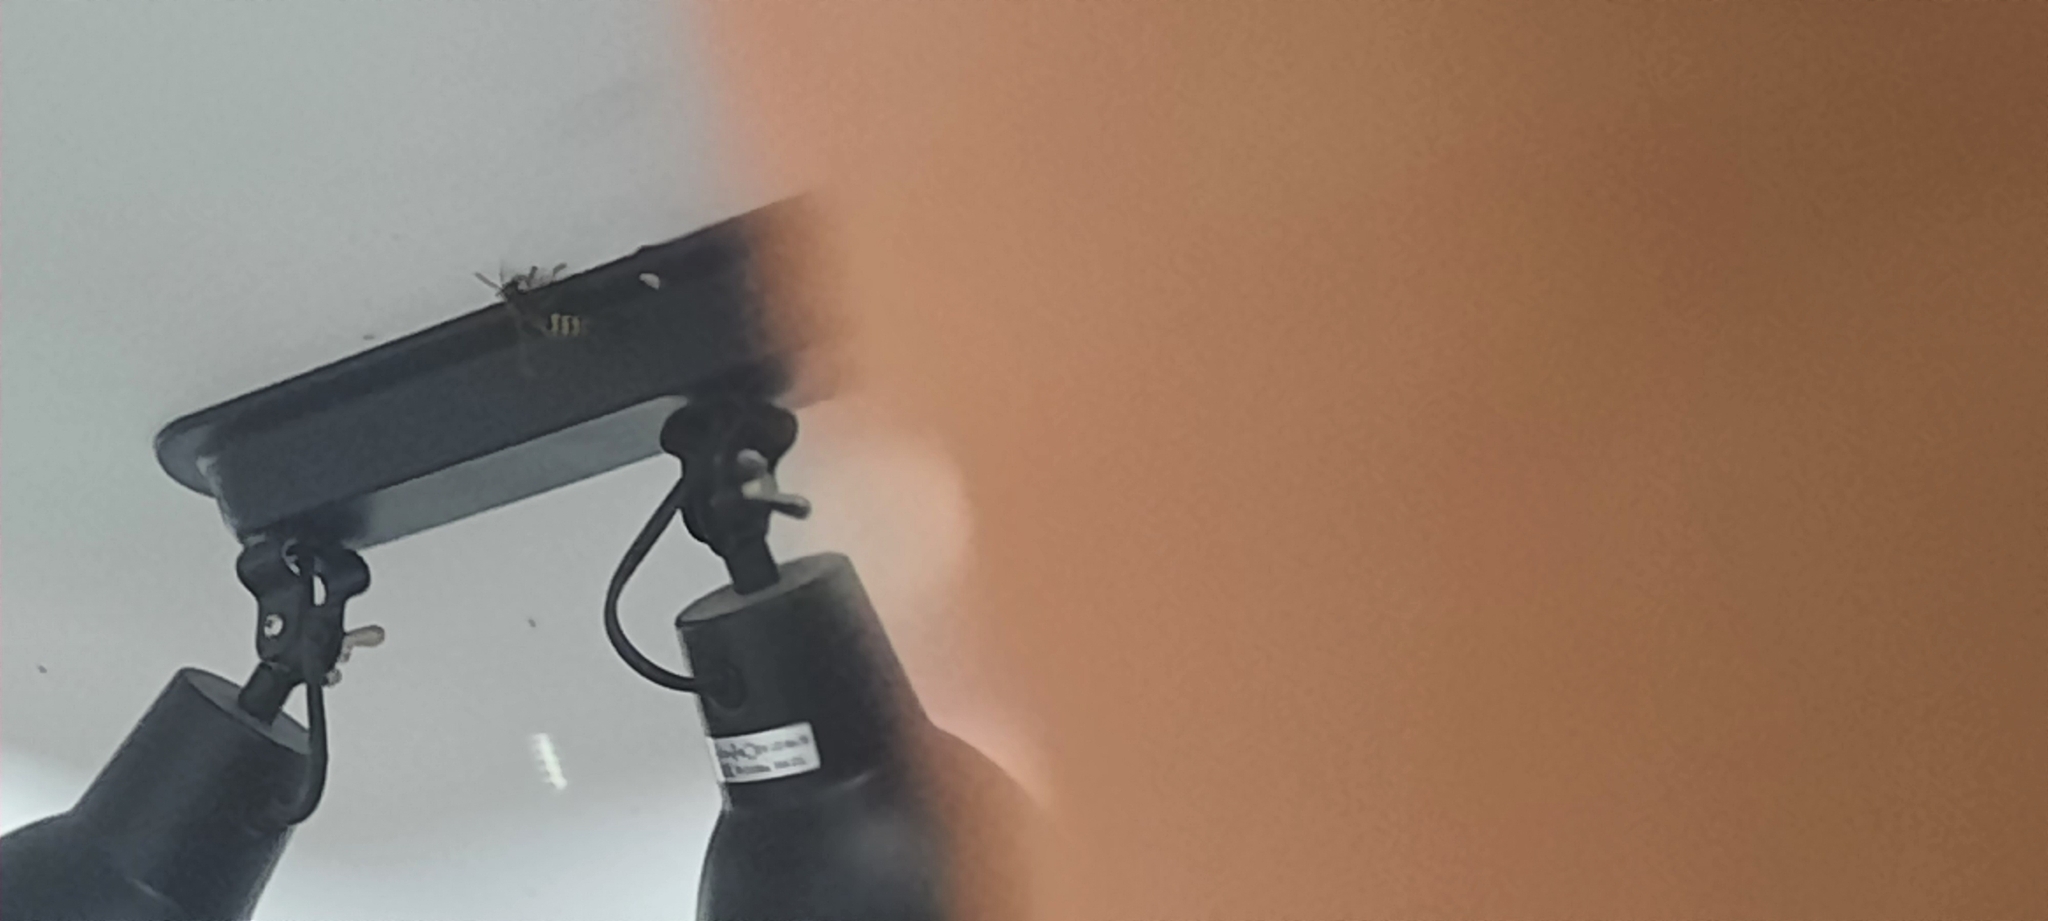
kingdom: Animalia
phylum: Arthropoda
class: Insecta
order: Hymenoptera
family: Vespidae
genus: Vespa
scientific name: Vespa crabro
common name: Hornet
